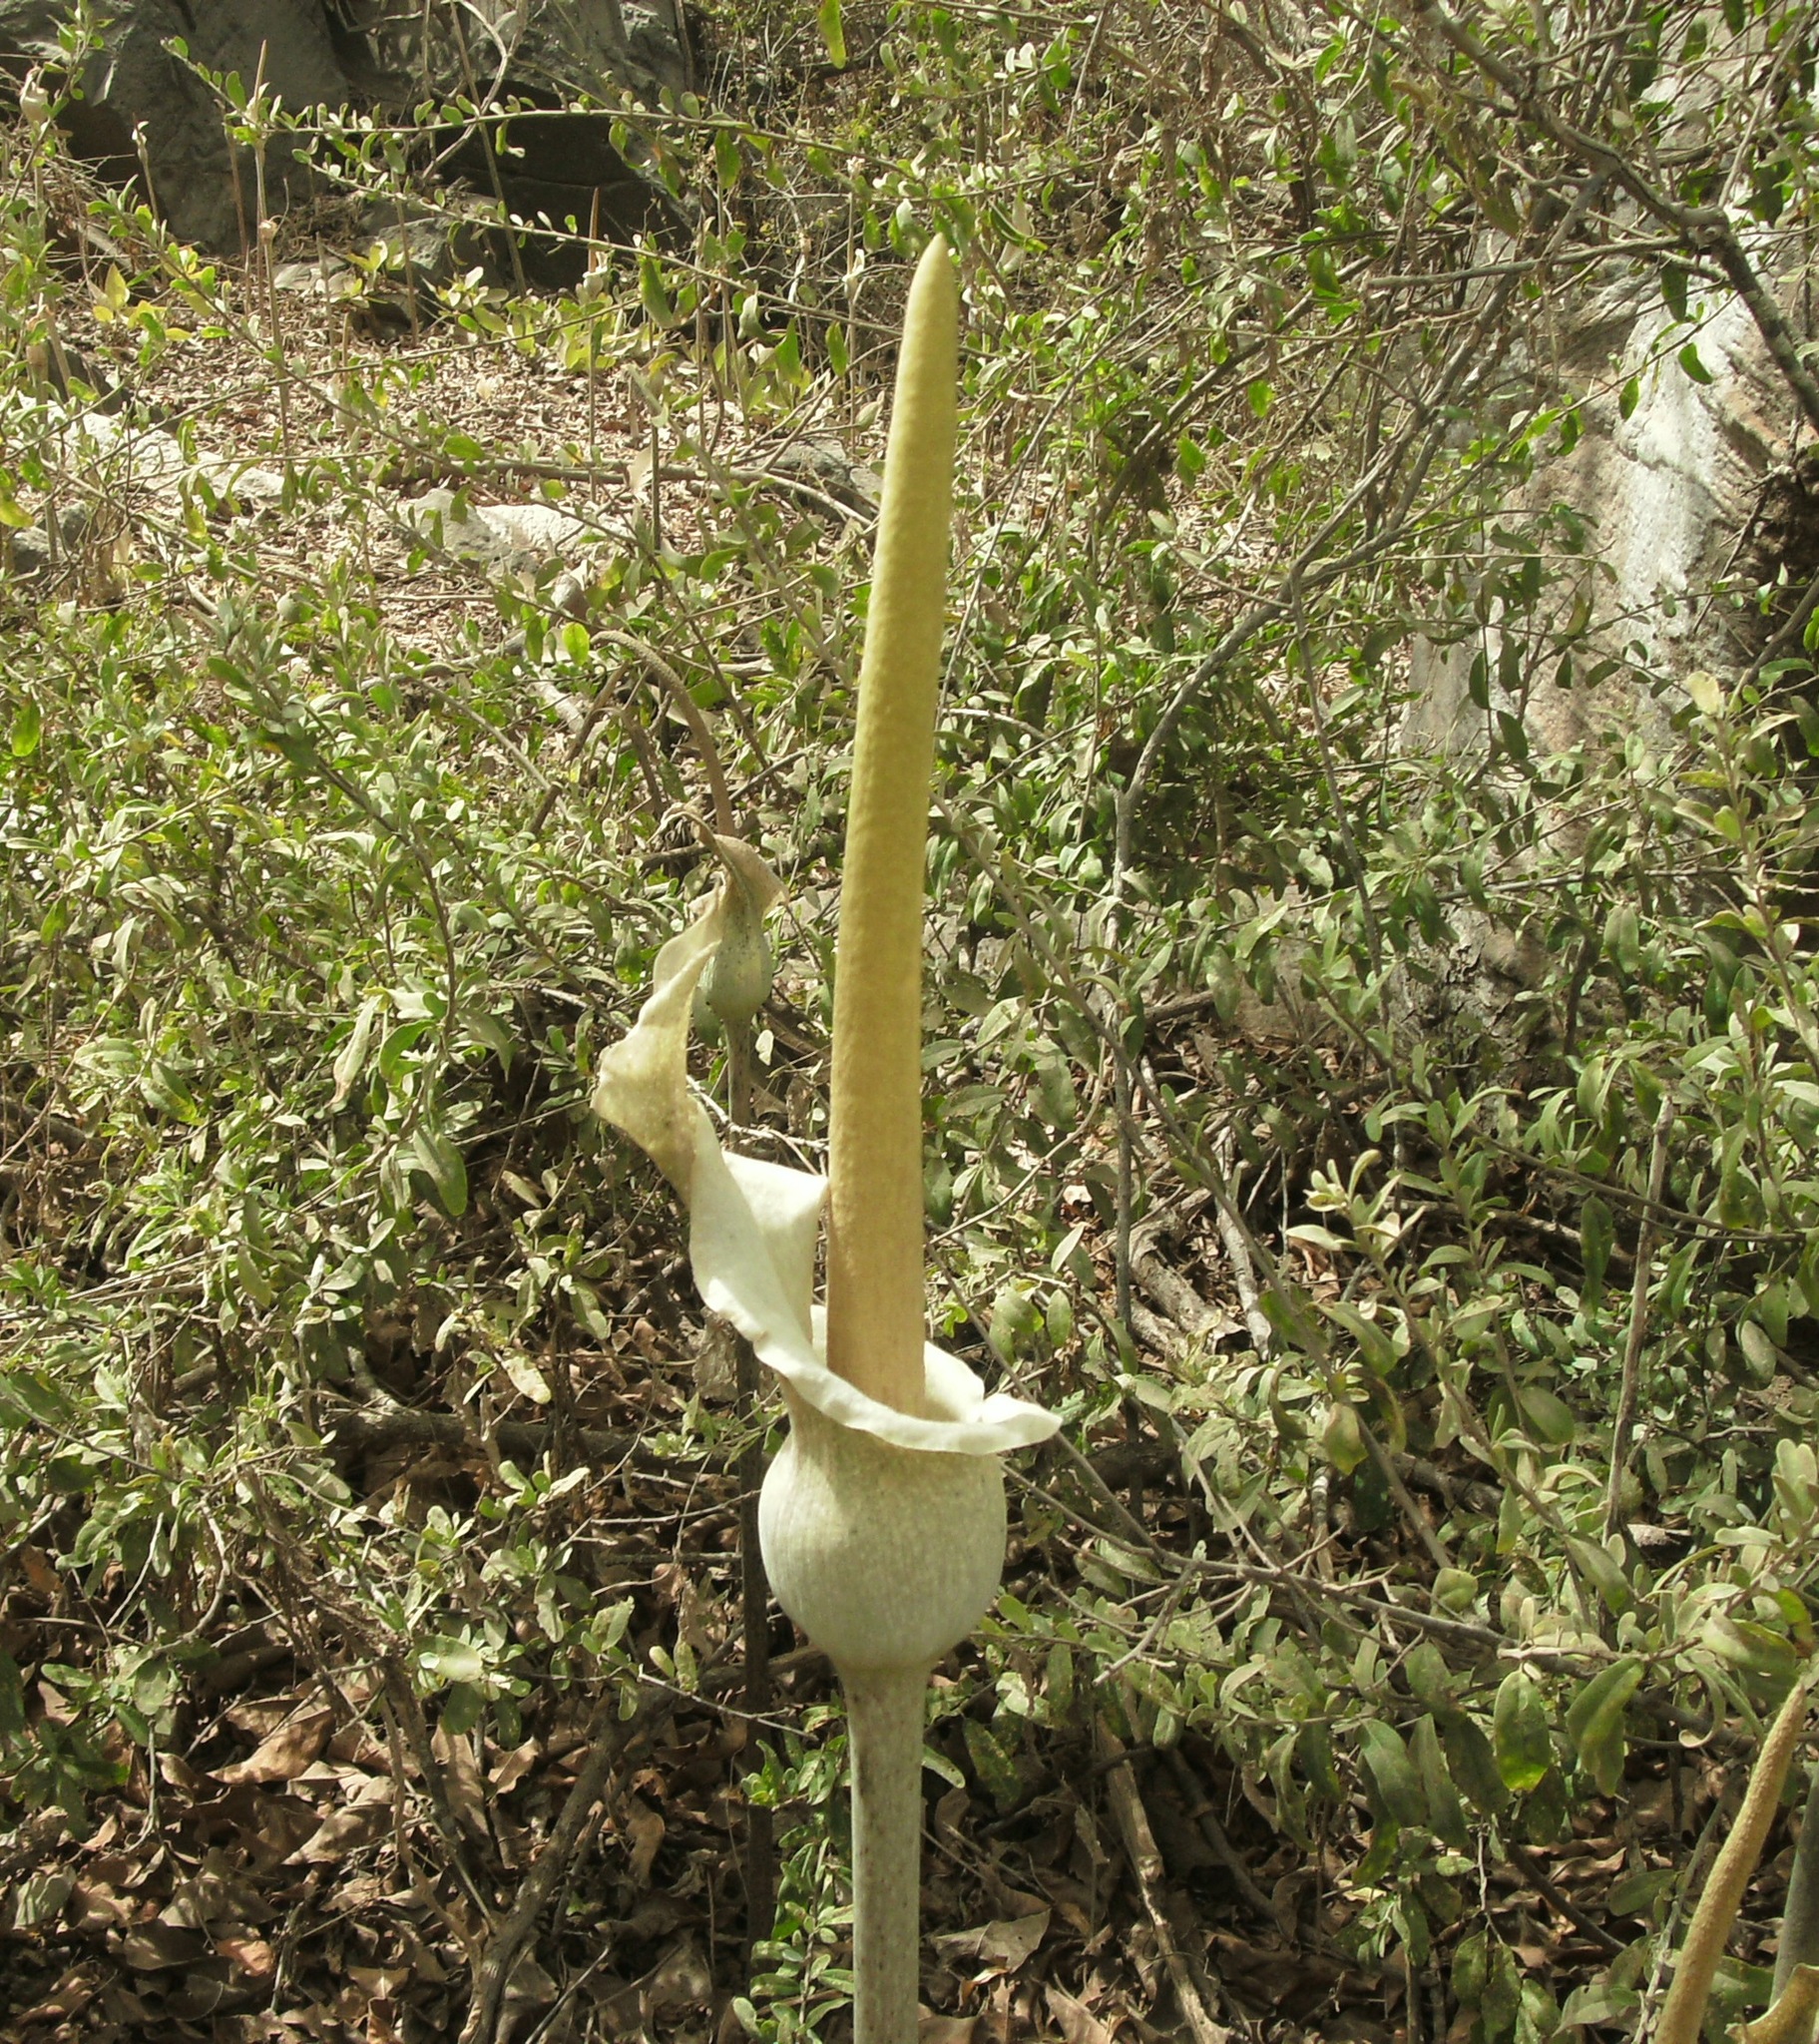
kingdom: Plantae
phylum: Tracheophyta
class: Liliopsida
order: Alismatales
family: Araceae
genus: Amorphophallus
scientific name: Amorphophallus consimilis
